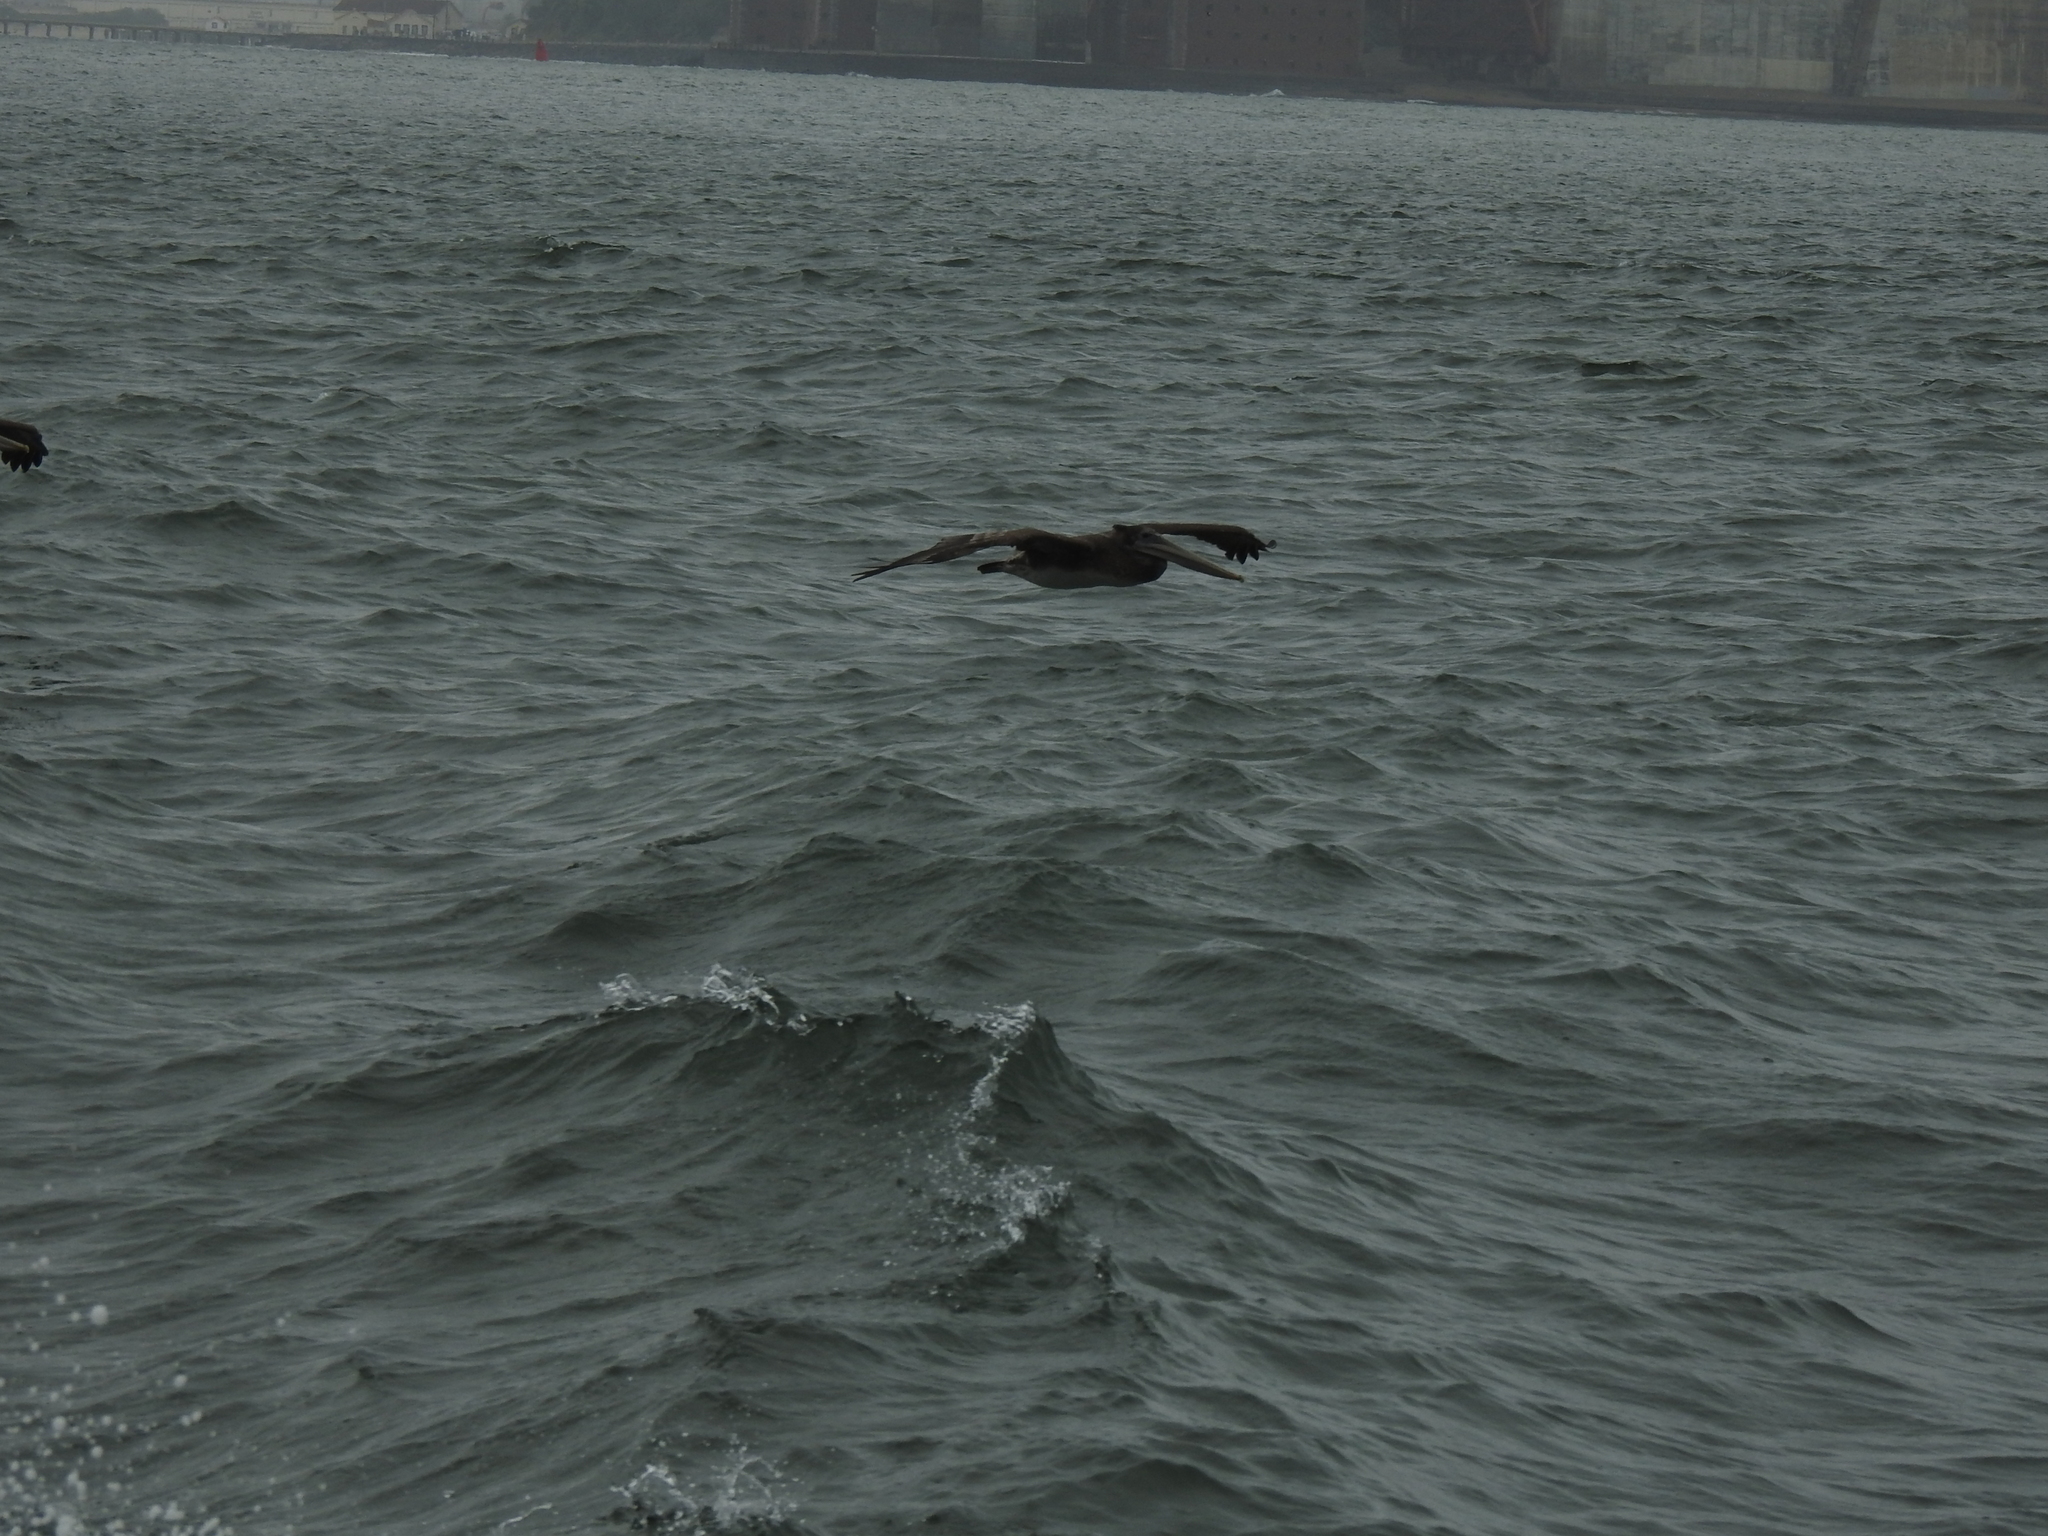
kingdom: Animalia
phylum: Chordata
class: Aves
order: Pelecaniformes
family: Pelecanidae
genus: Pelecanus
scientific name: Pelecanus occidentalis
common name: Brown pelican
